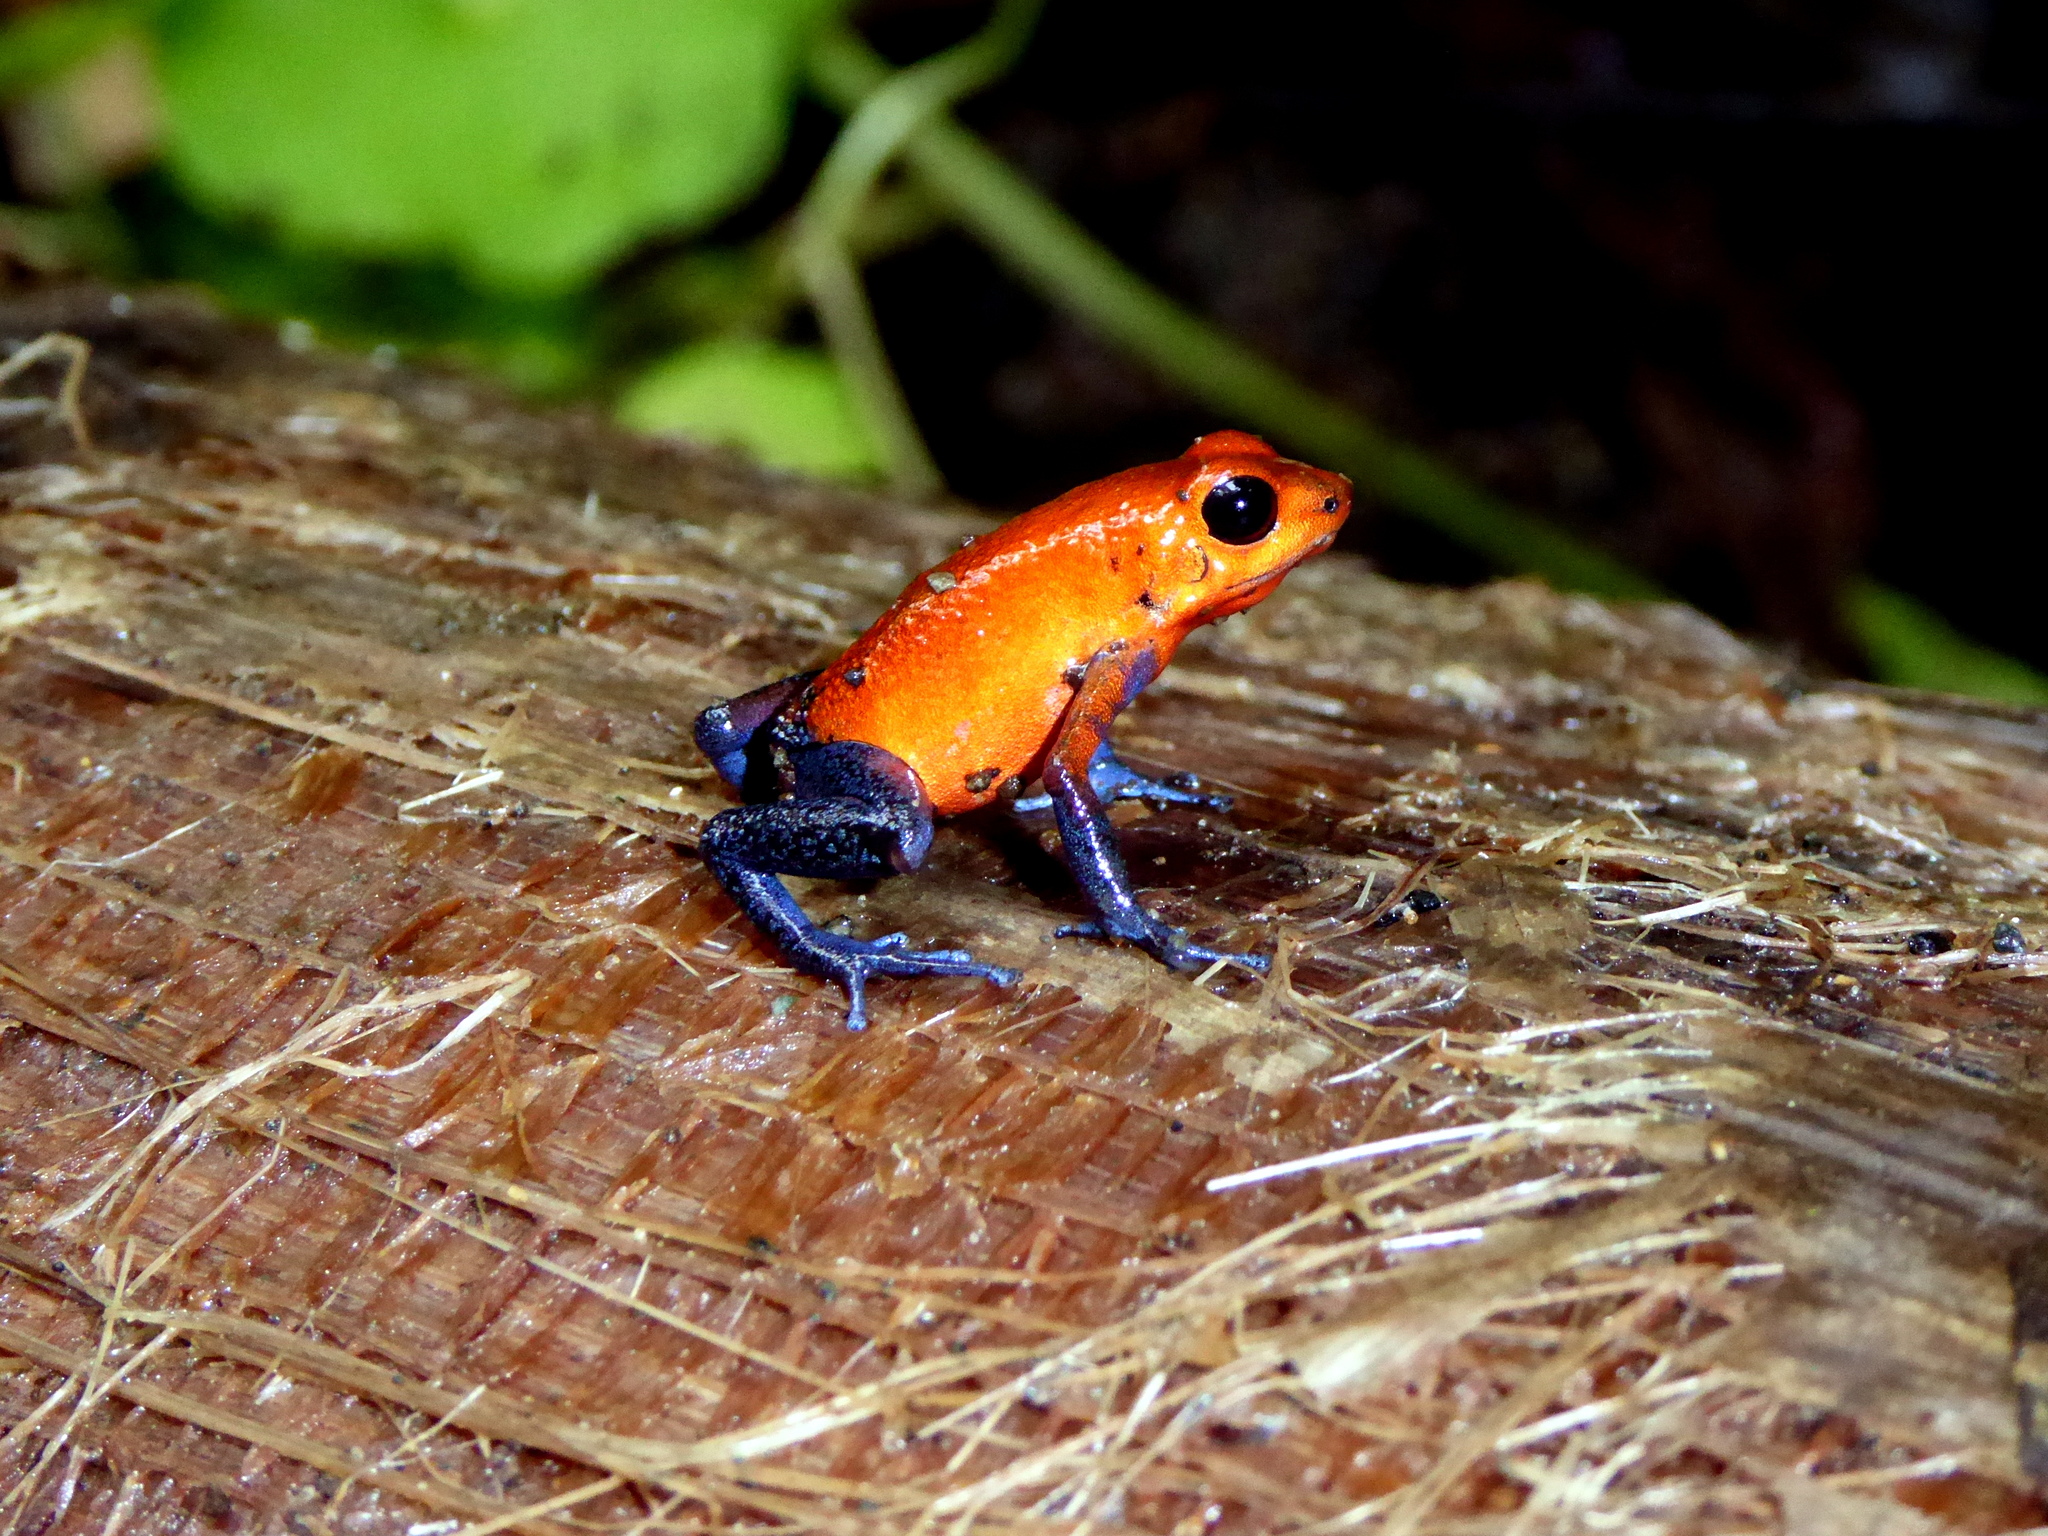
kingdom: Animalia
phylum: Chordata
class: Amphibia
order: Anura
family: Dendrobatidae
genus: Oophaga
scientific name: Oophaga pumilio
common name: Flaming poison frog
